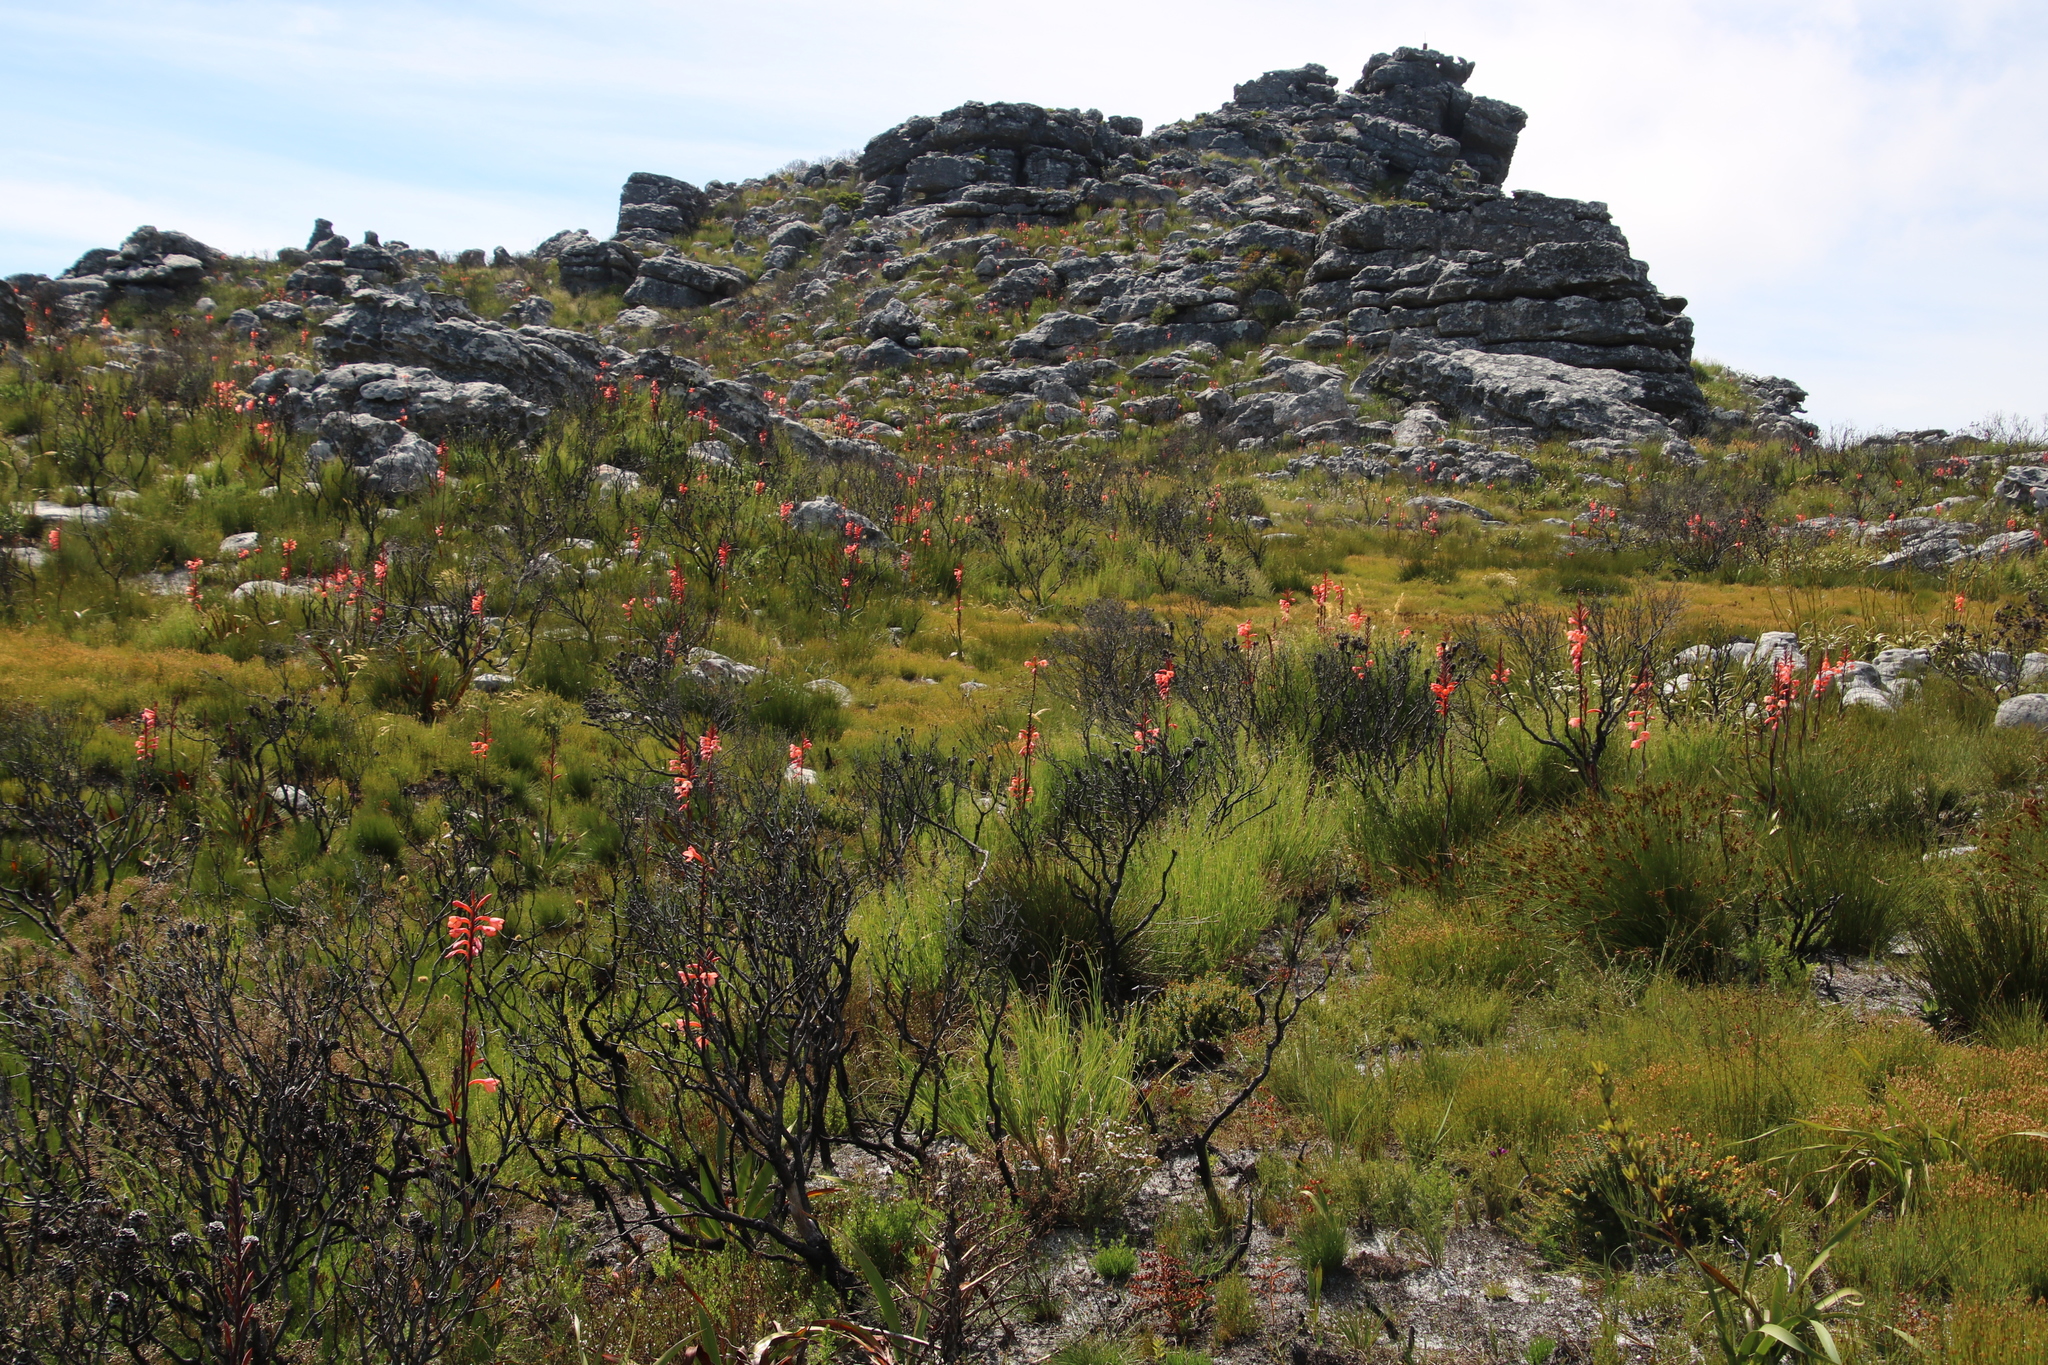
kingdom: Plantae
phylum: Tracheophyta
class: Liliopsida
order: Asparagales
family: Iridaceae
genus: Watsonia
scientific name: Watsonia tabularis
